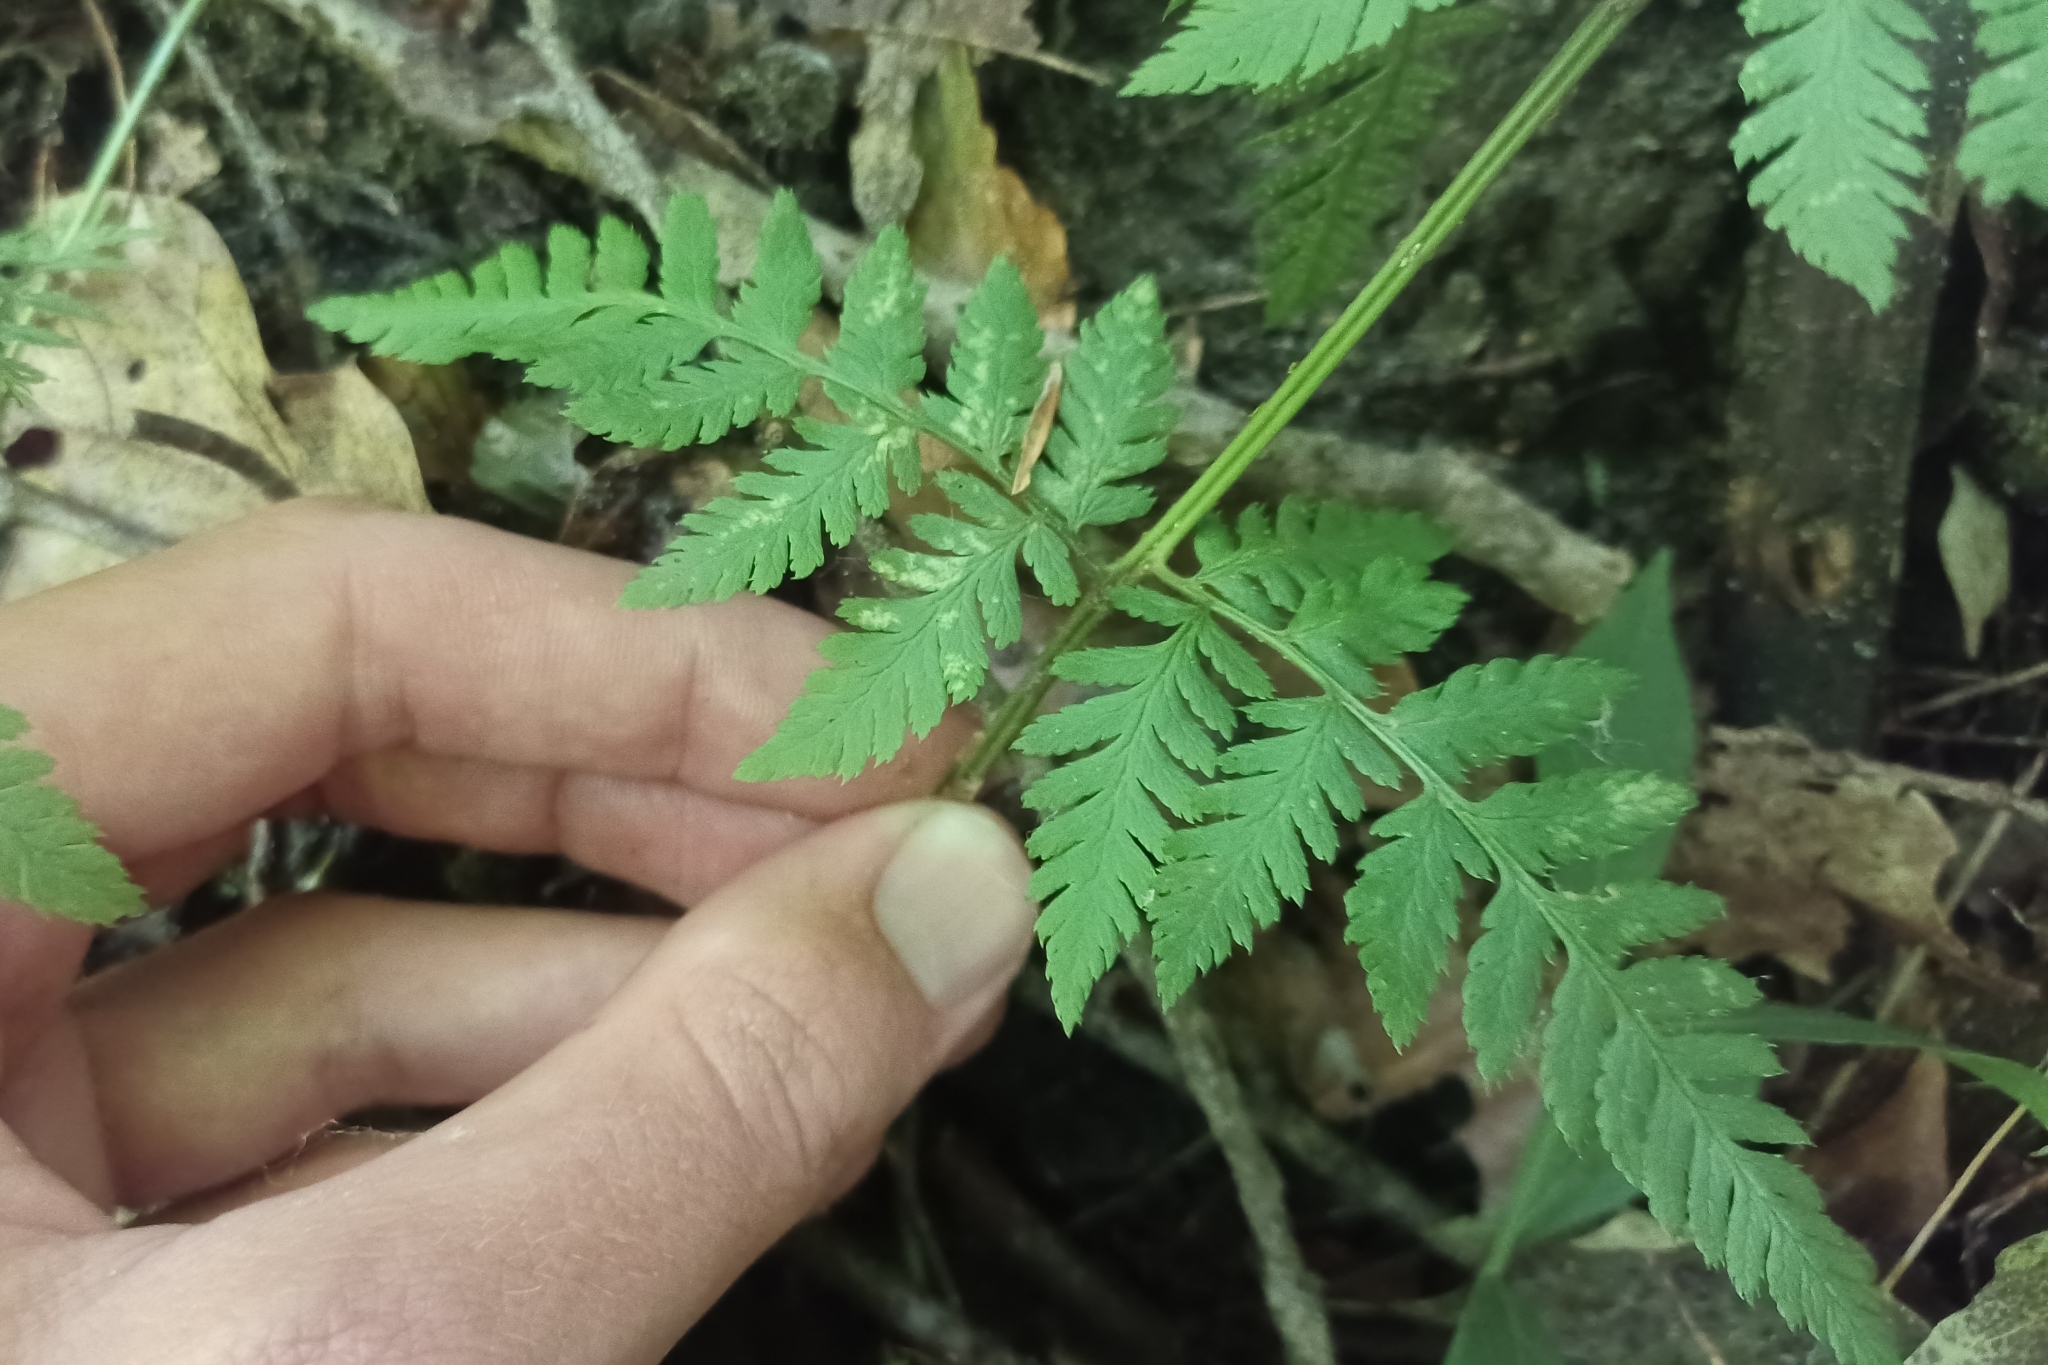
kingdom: Plantae
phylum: Tracheophyta
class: Polypodiopsida
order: Polypodiales
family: Dryopteridaceae
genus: Dryopteris
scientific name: Dryopteris carthusiana
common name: Narrow buckler-fern
